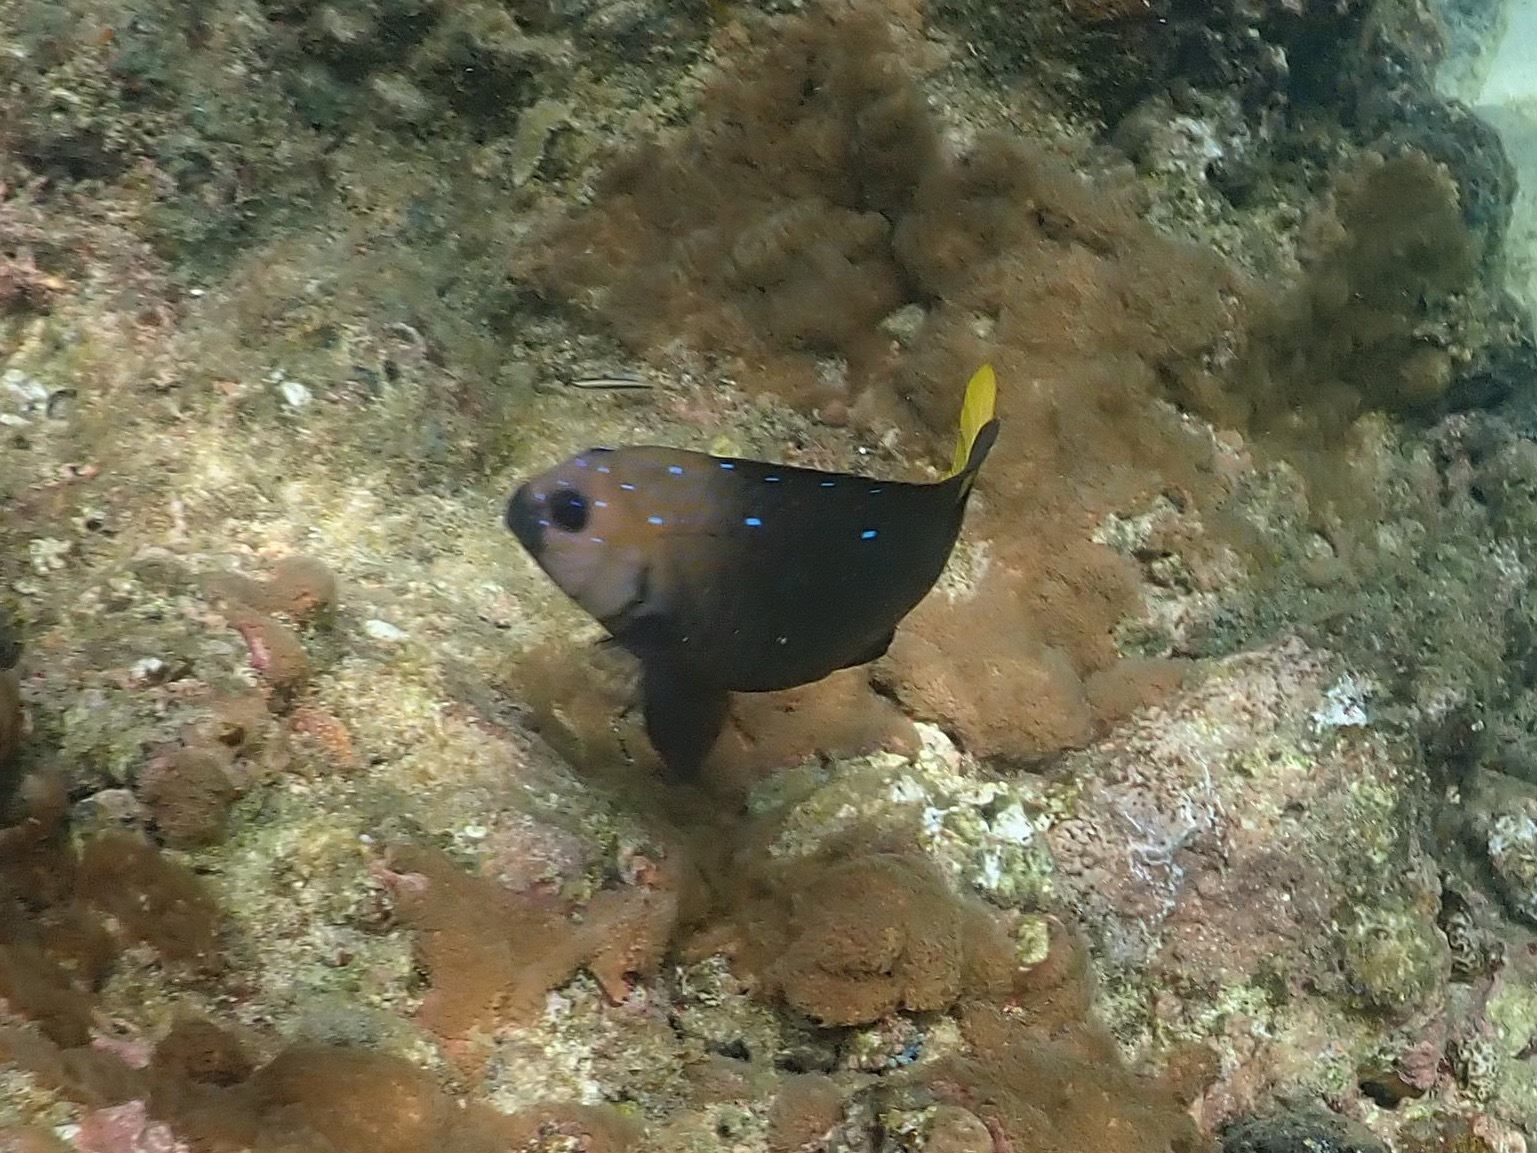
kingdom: Animalia
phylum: Chordata
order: Perciformes
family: Pomacentridae
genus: Microspathodon
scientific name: Microspathodon chrysurus
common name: Yellowtail damselfish
